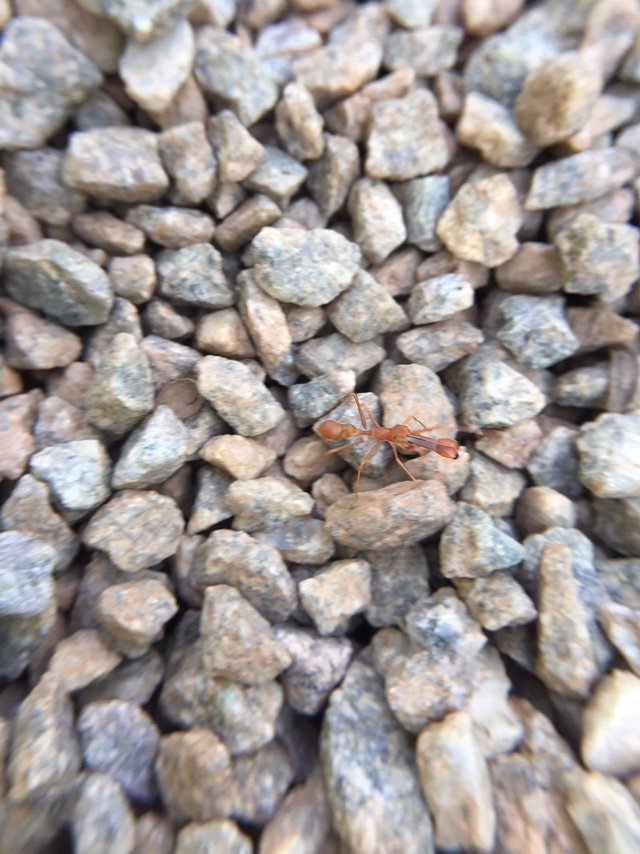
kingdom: Animalia
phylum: Arthropoda
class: Arachnida
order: Araneae
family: Salticidae
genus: Myrmaplata
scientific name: Myrmaplata plataleoides
